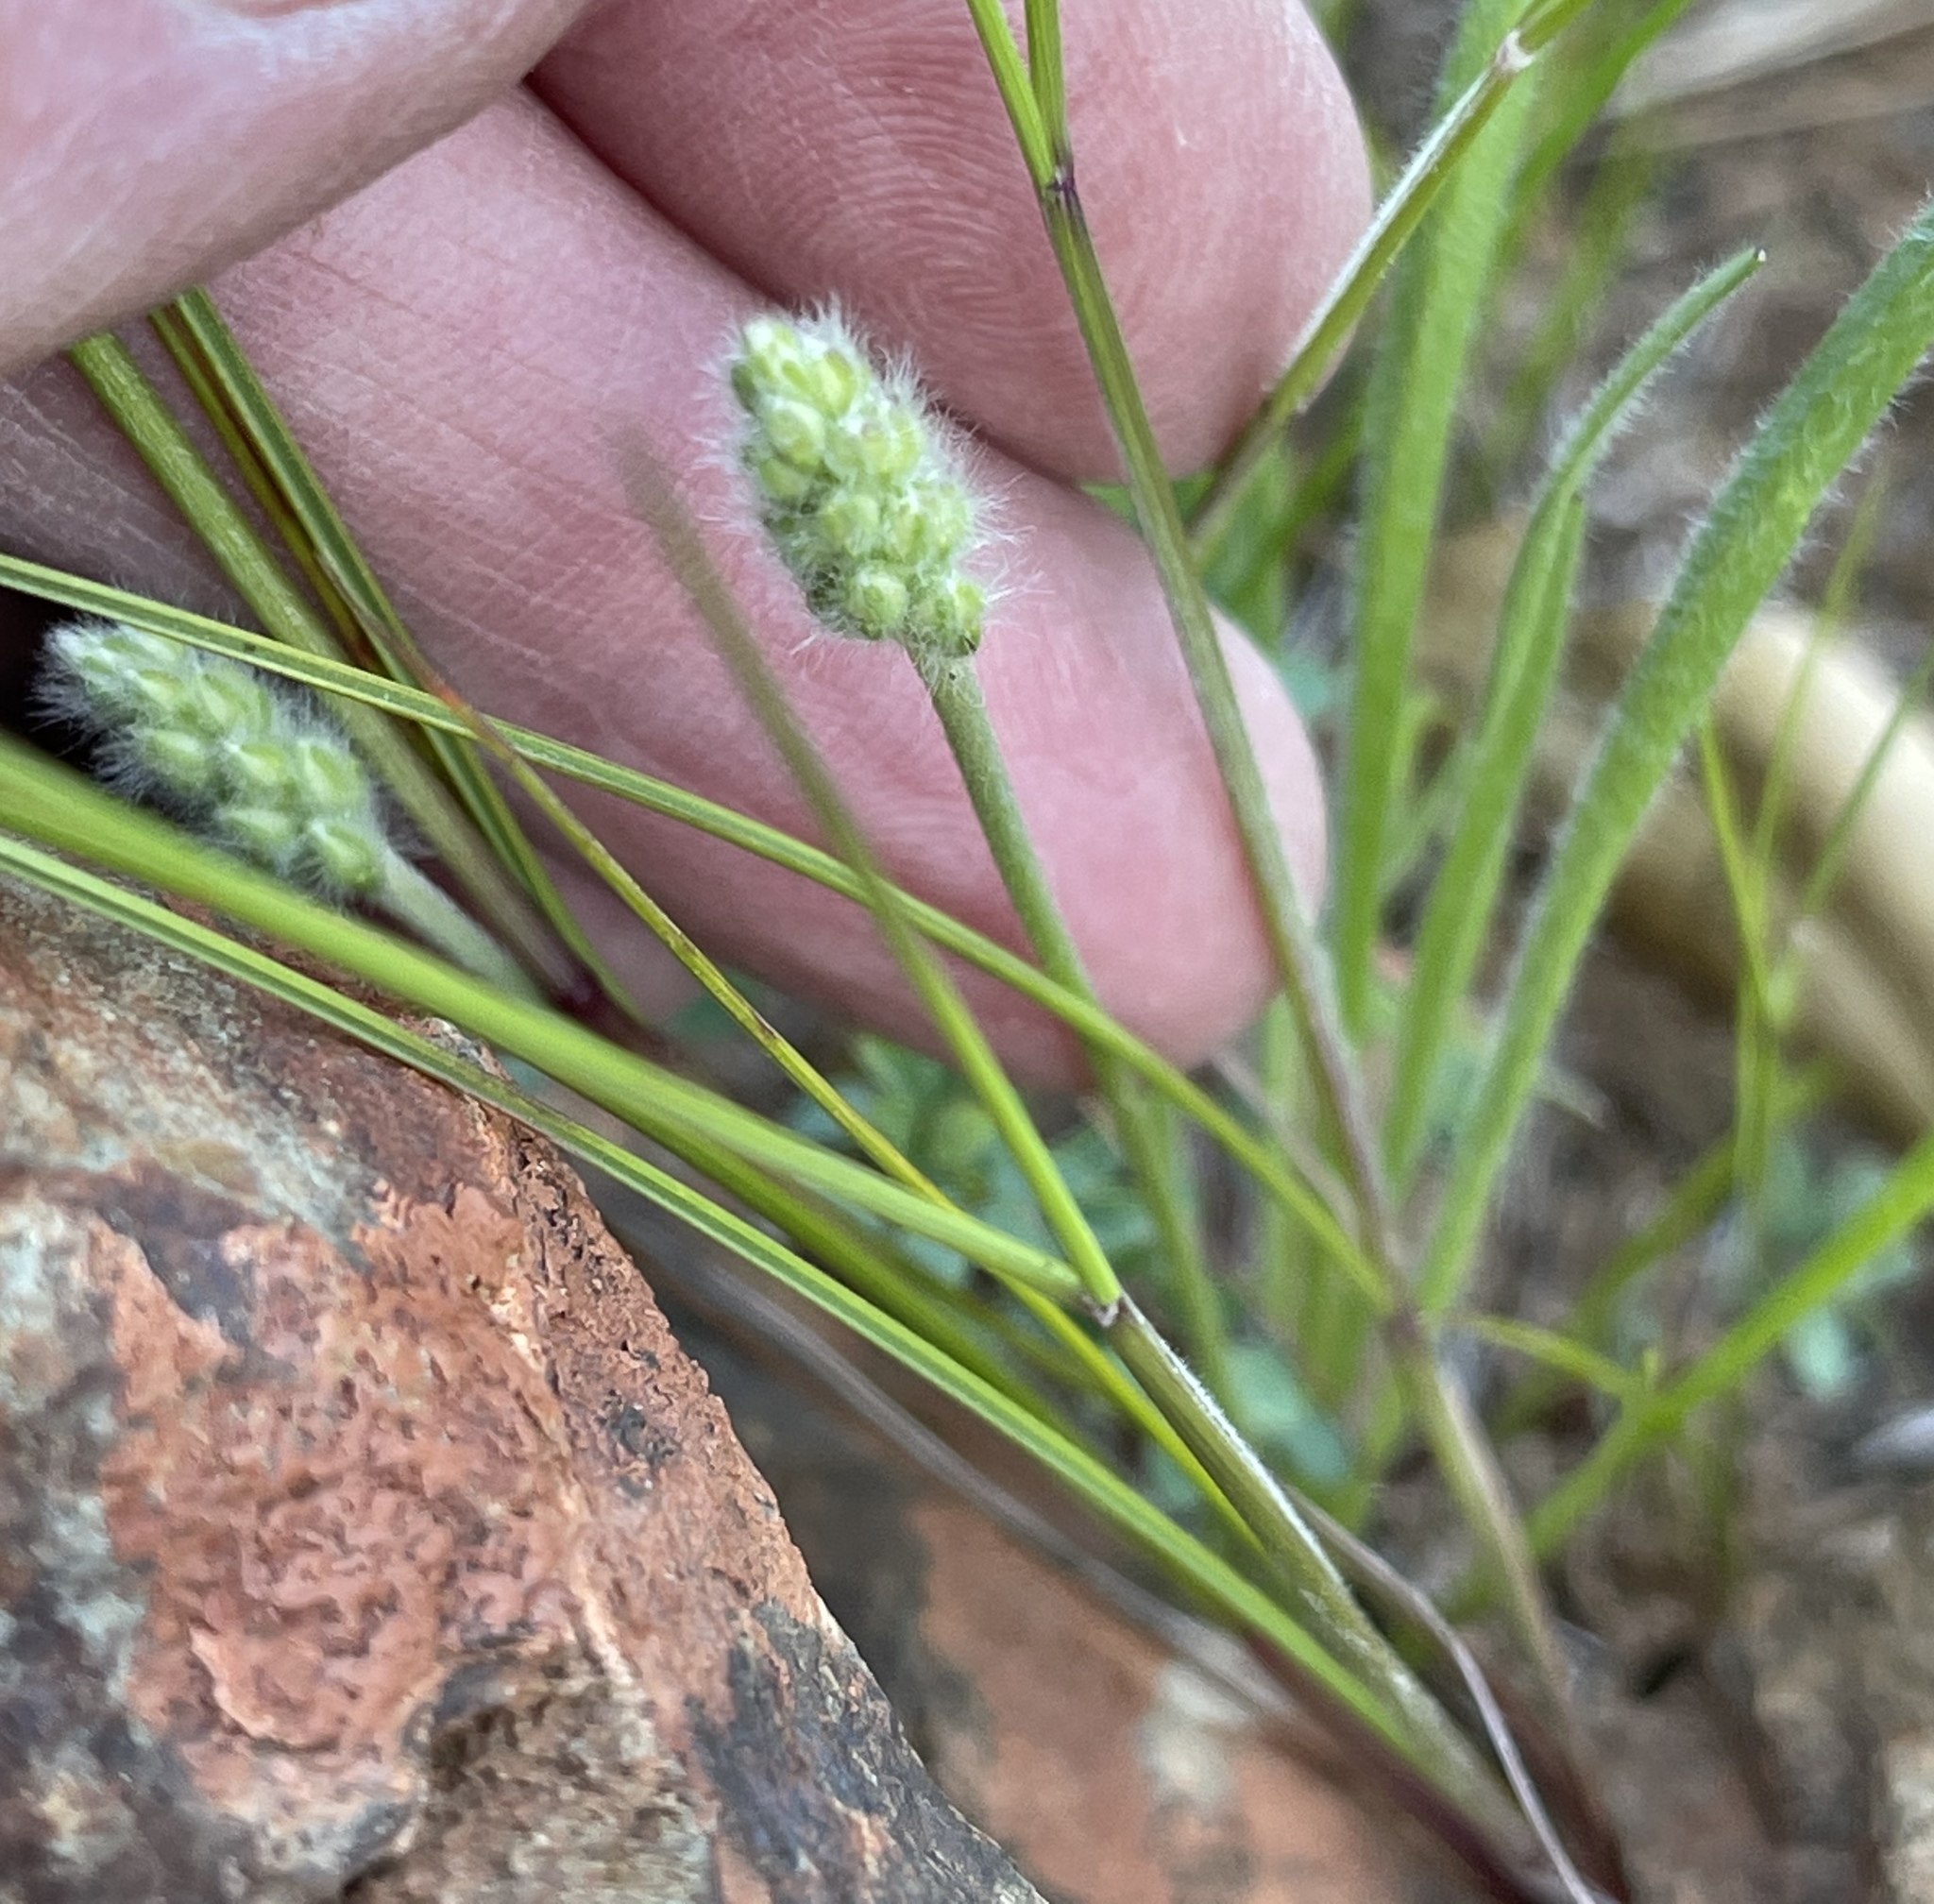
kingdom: Plantae
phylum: Tracheophyta
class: Magnoliopsida
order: Lamiales
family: Plantaginaceae
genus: Plantago
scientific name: Plantago erecta
